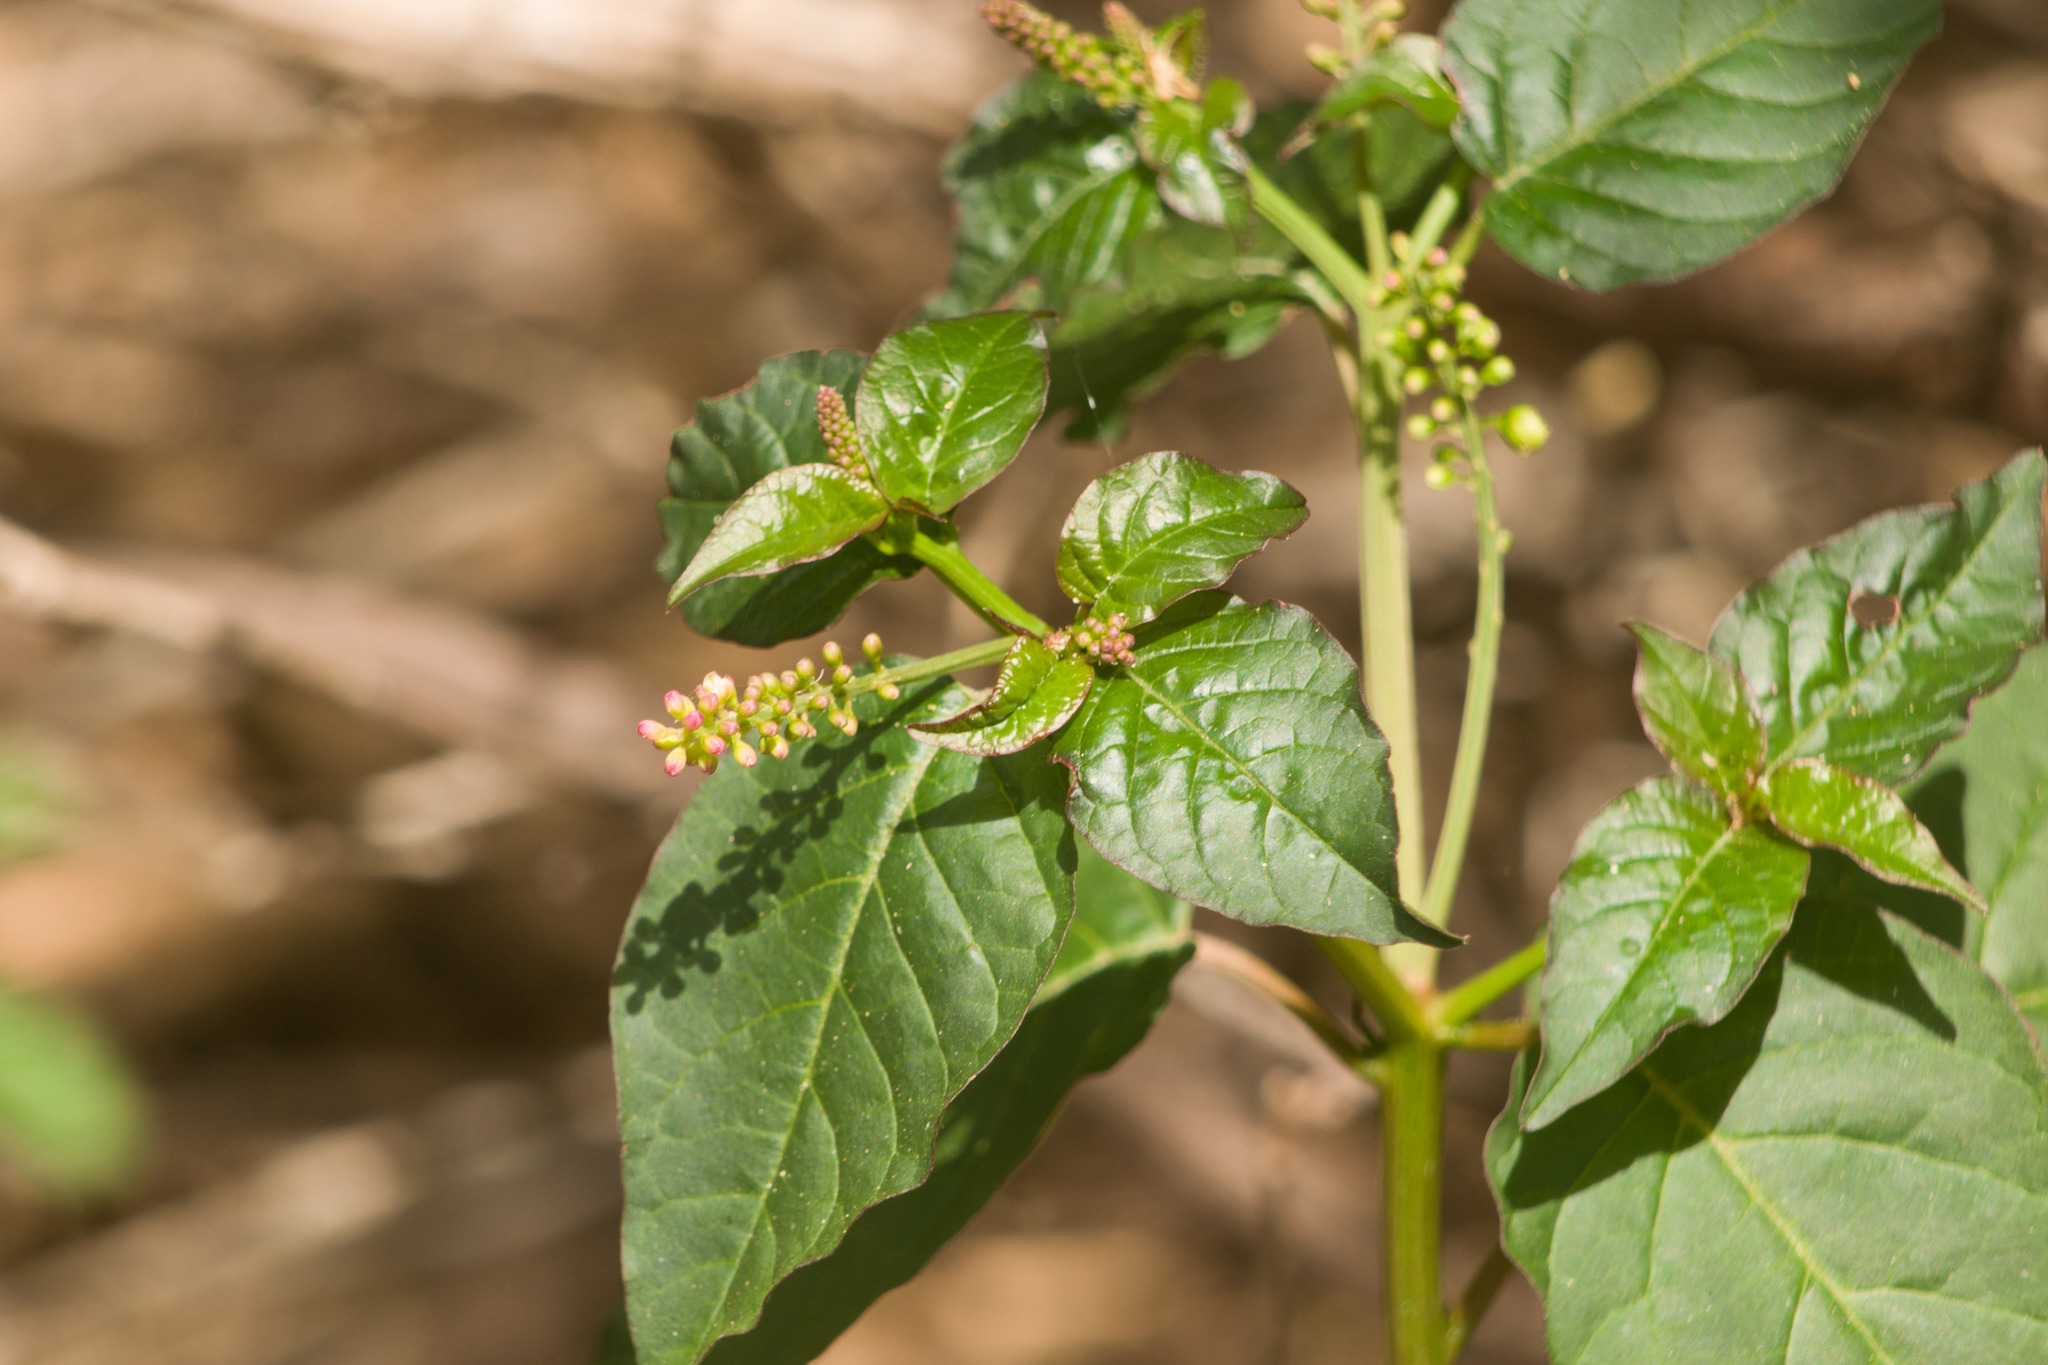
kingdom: Plantae
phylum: Tracheophyta
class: Magnoliopsida
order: Caryophyllales
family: Phytolaccaceae
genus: Rivina
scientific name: Rivina humilis
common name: Rougeplant
